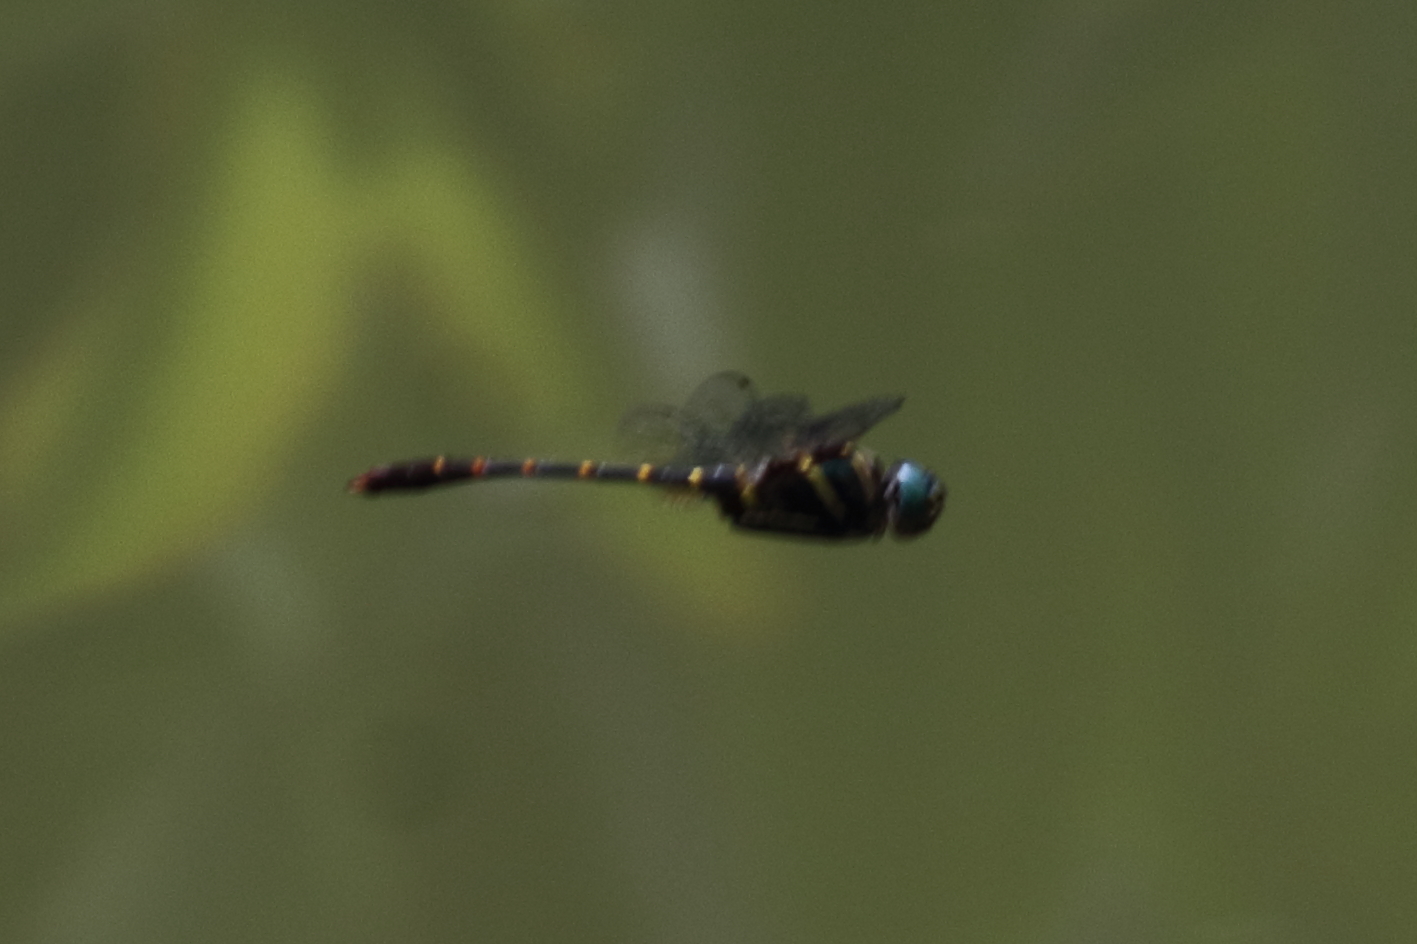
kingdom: Animalia
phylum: Arthropoda
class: Insecta
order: Odonata
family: Macromiidae
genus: Epophthalmia
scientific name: Epophthalmia vittata
